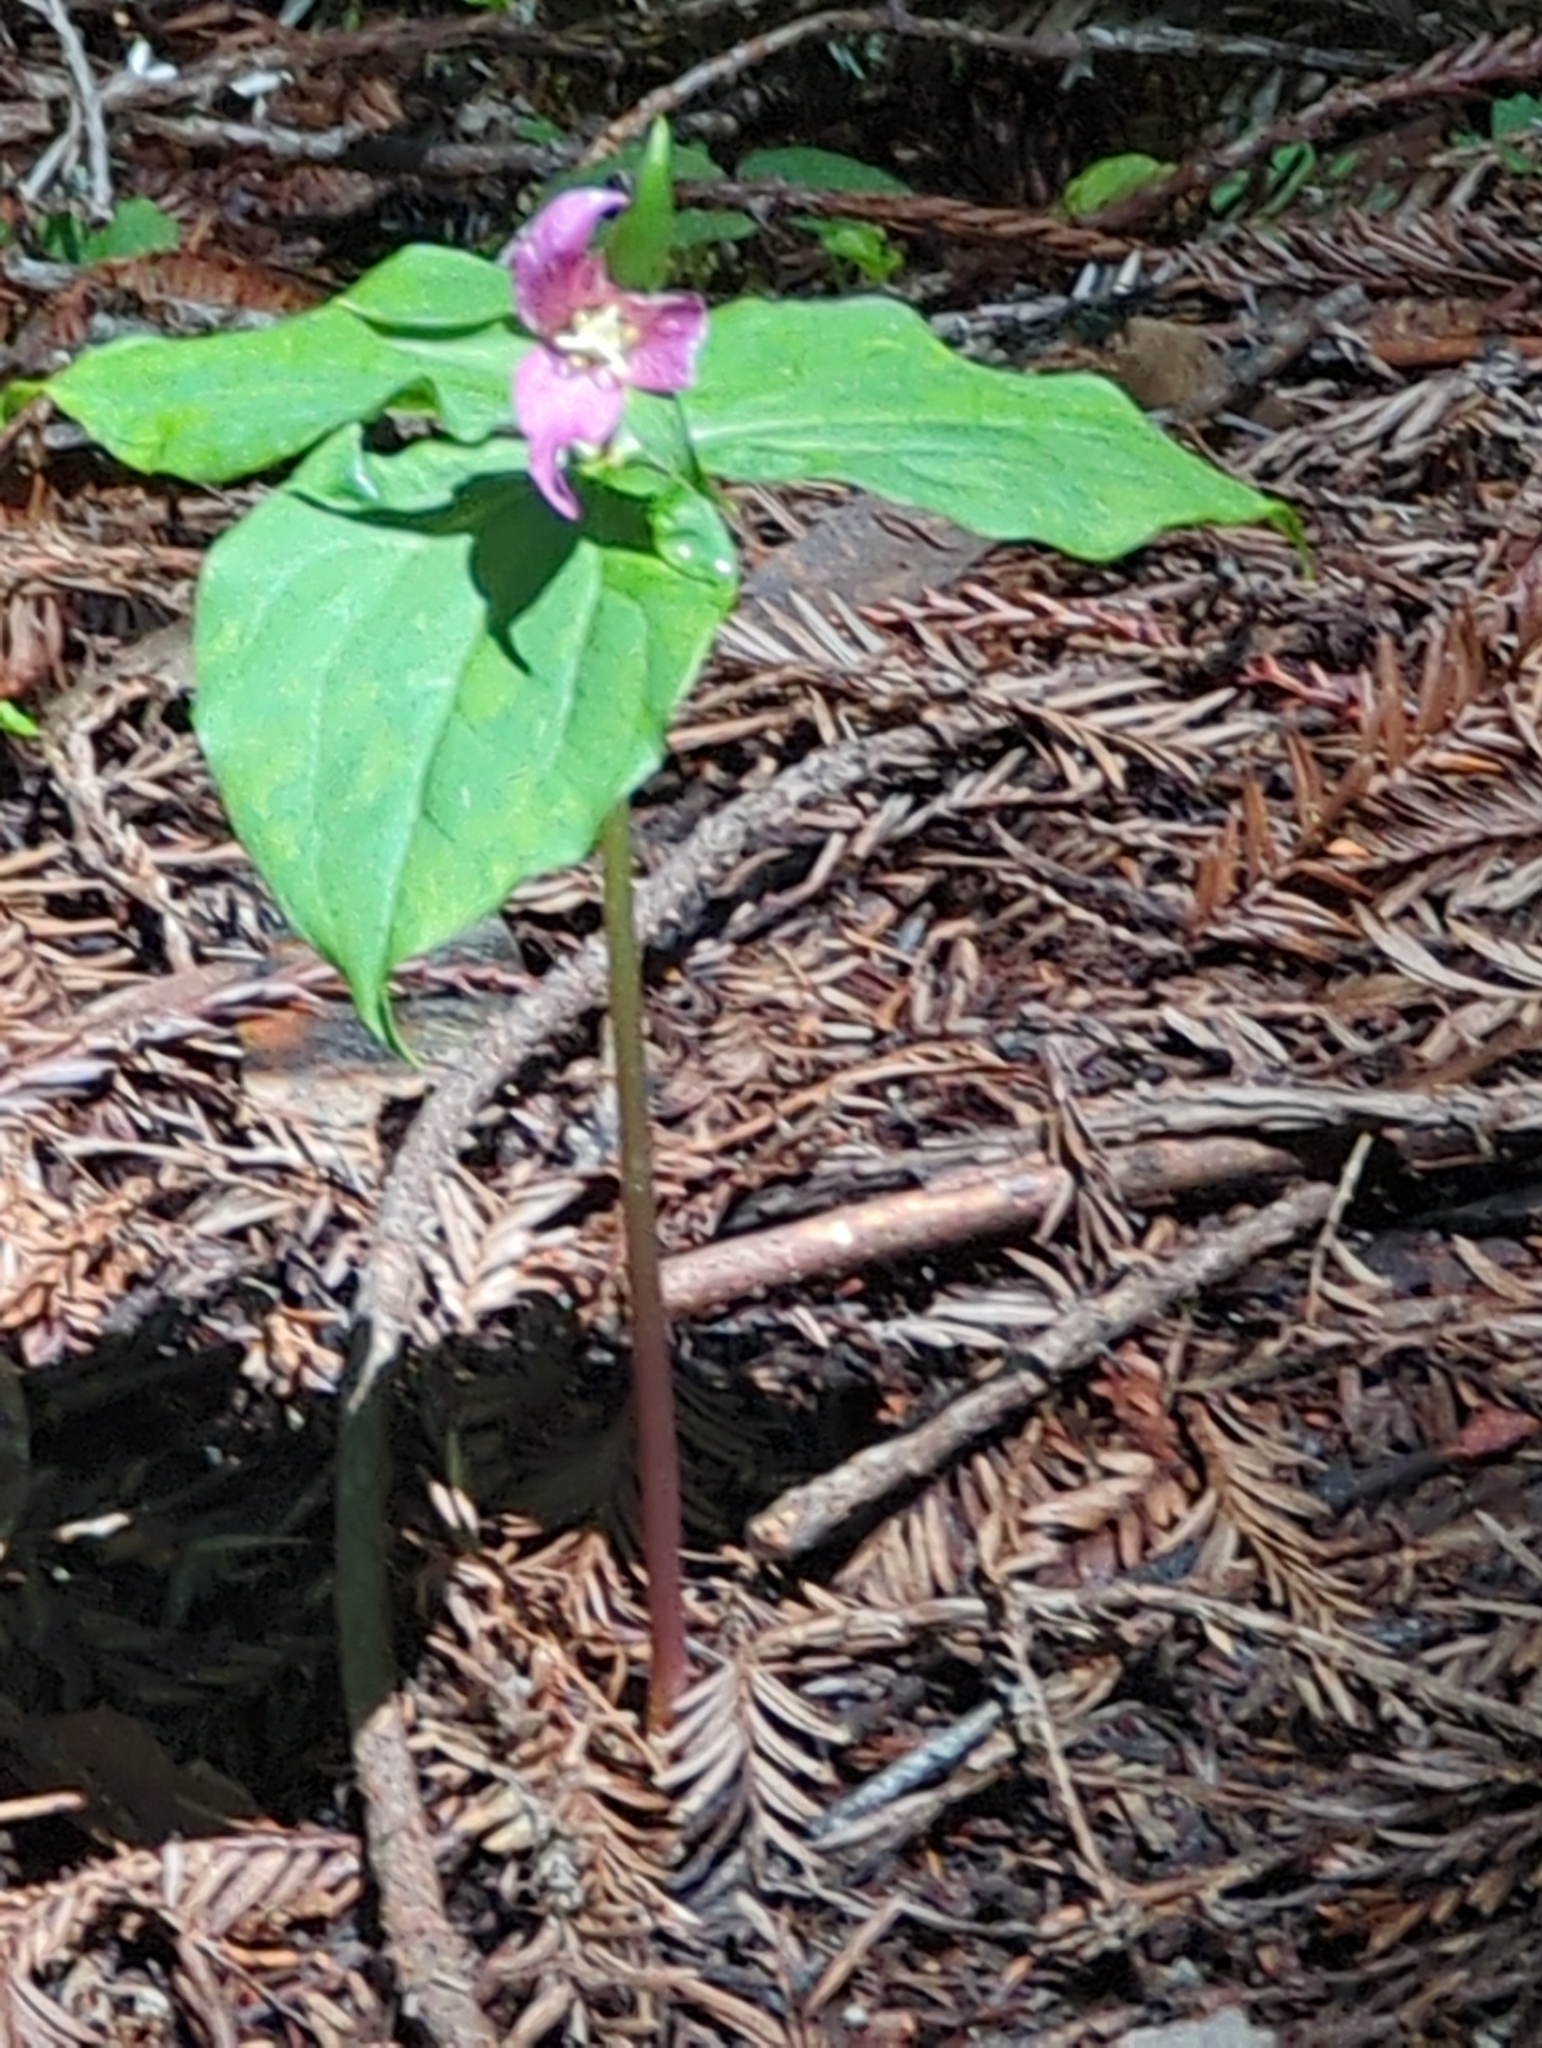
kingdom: Plantae
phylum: Tracheophyta
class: Liliopsida
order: Liliales
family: Melanthiaceae
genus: Trillium
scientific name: Trillium ovatum
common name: Pacific trillium
